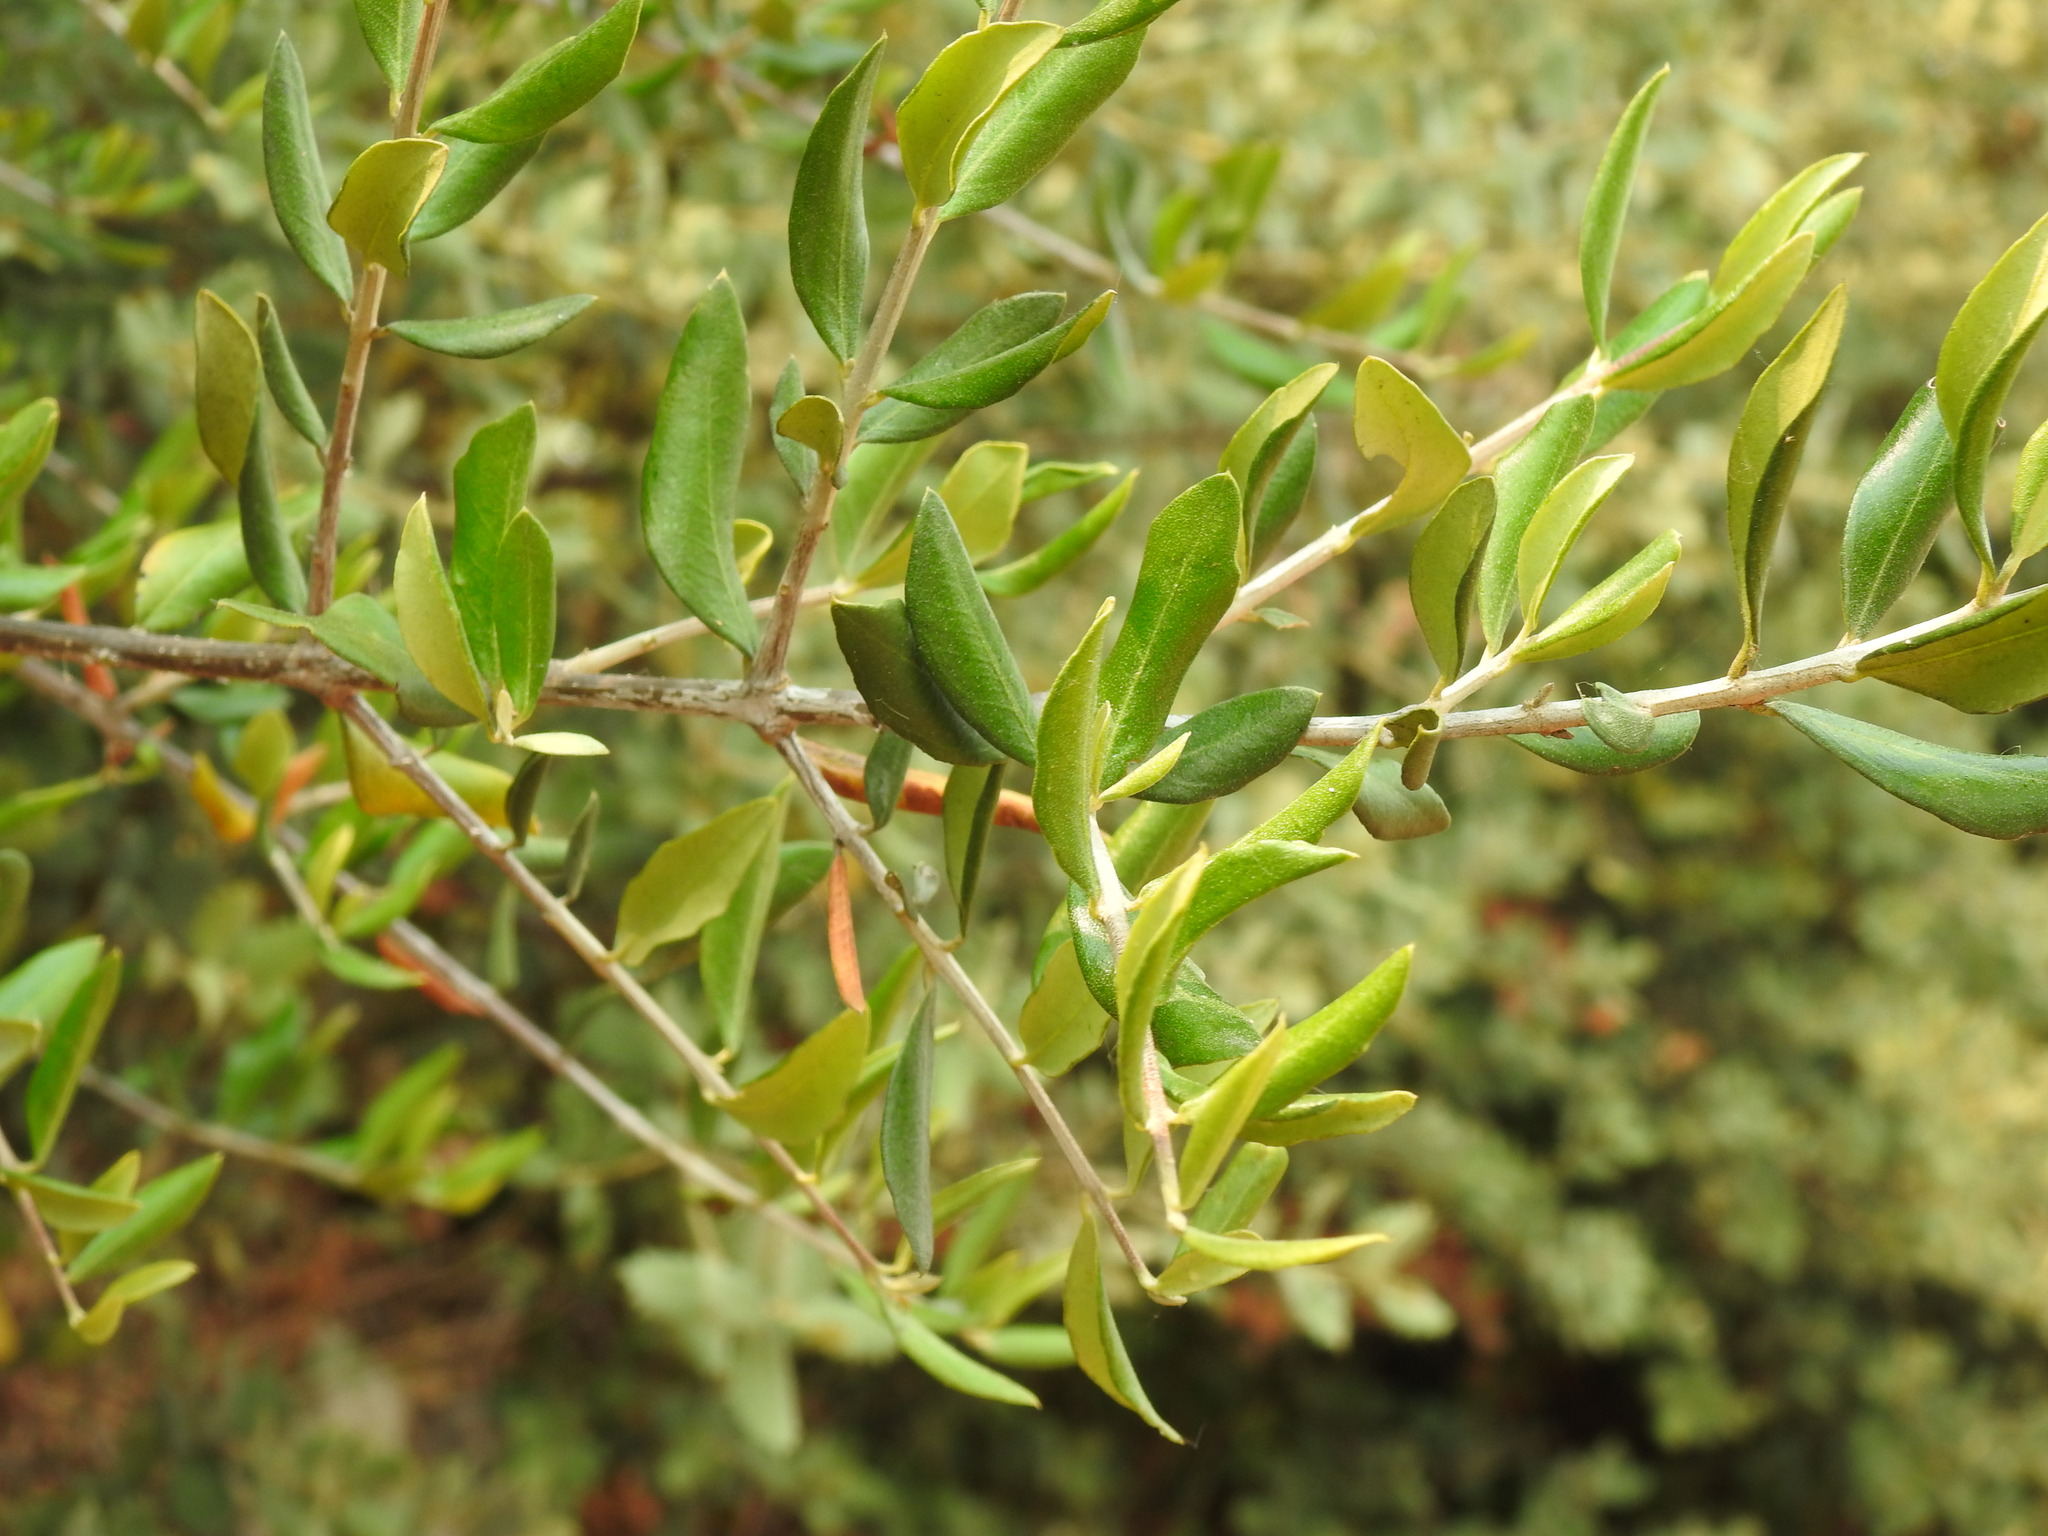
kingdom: Plantae
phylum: Tracheophyta
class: Magnoliopsida
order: Lamiales
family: Oleaceae
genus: Olea
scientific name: Olea europaea
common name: Olive
